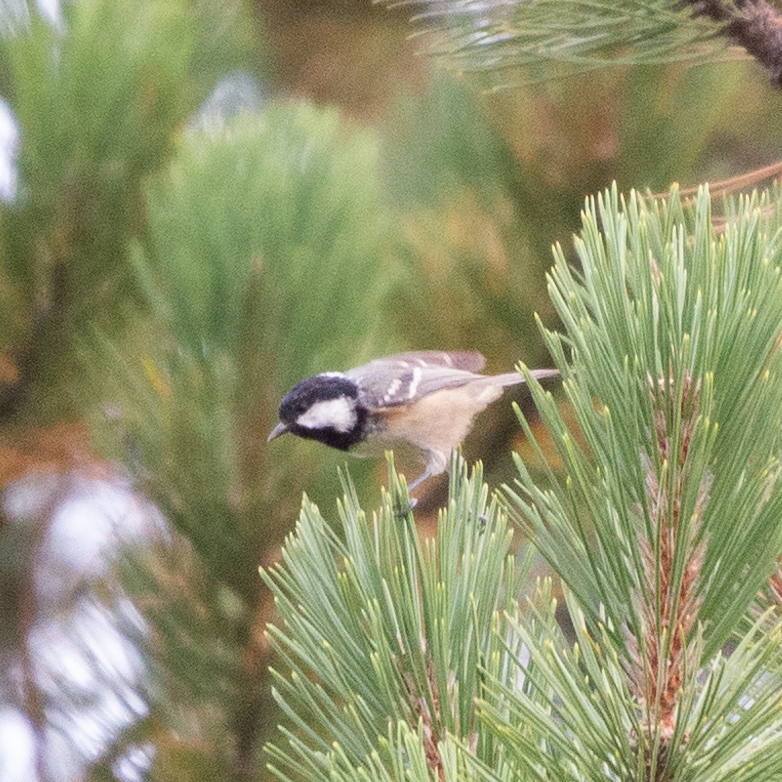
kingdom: Animalia
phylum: Chordata
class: Aves
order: Passeriformes
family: Paridae
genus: Periparus
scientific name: Periparus ater
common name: Coal tit
